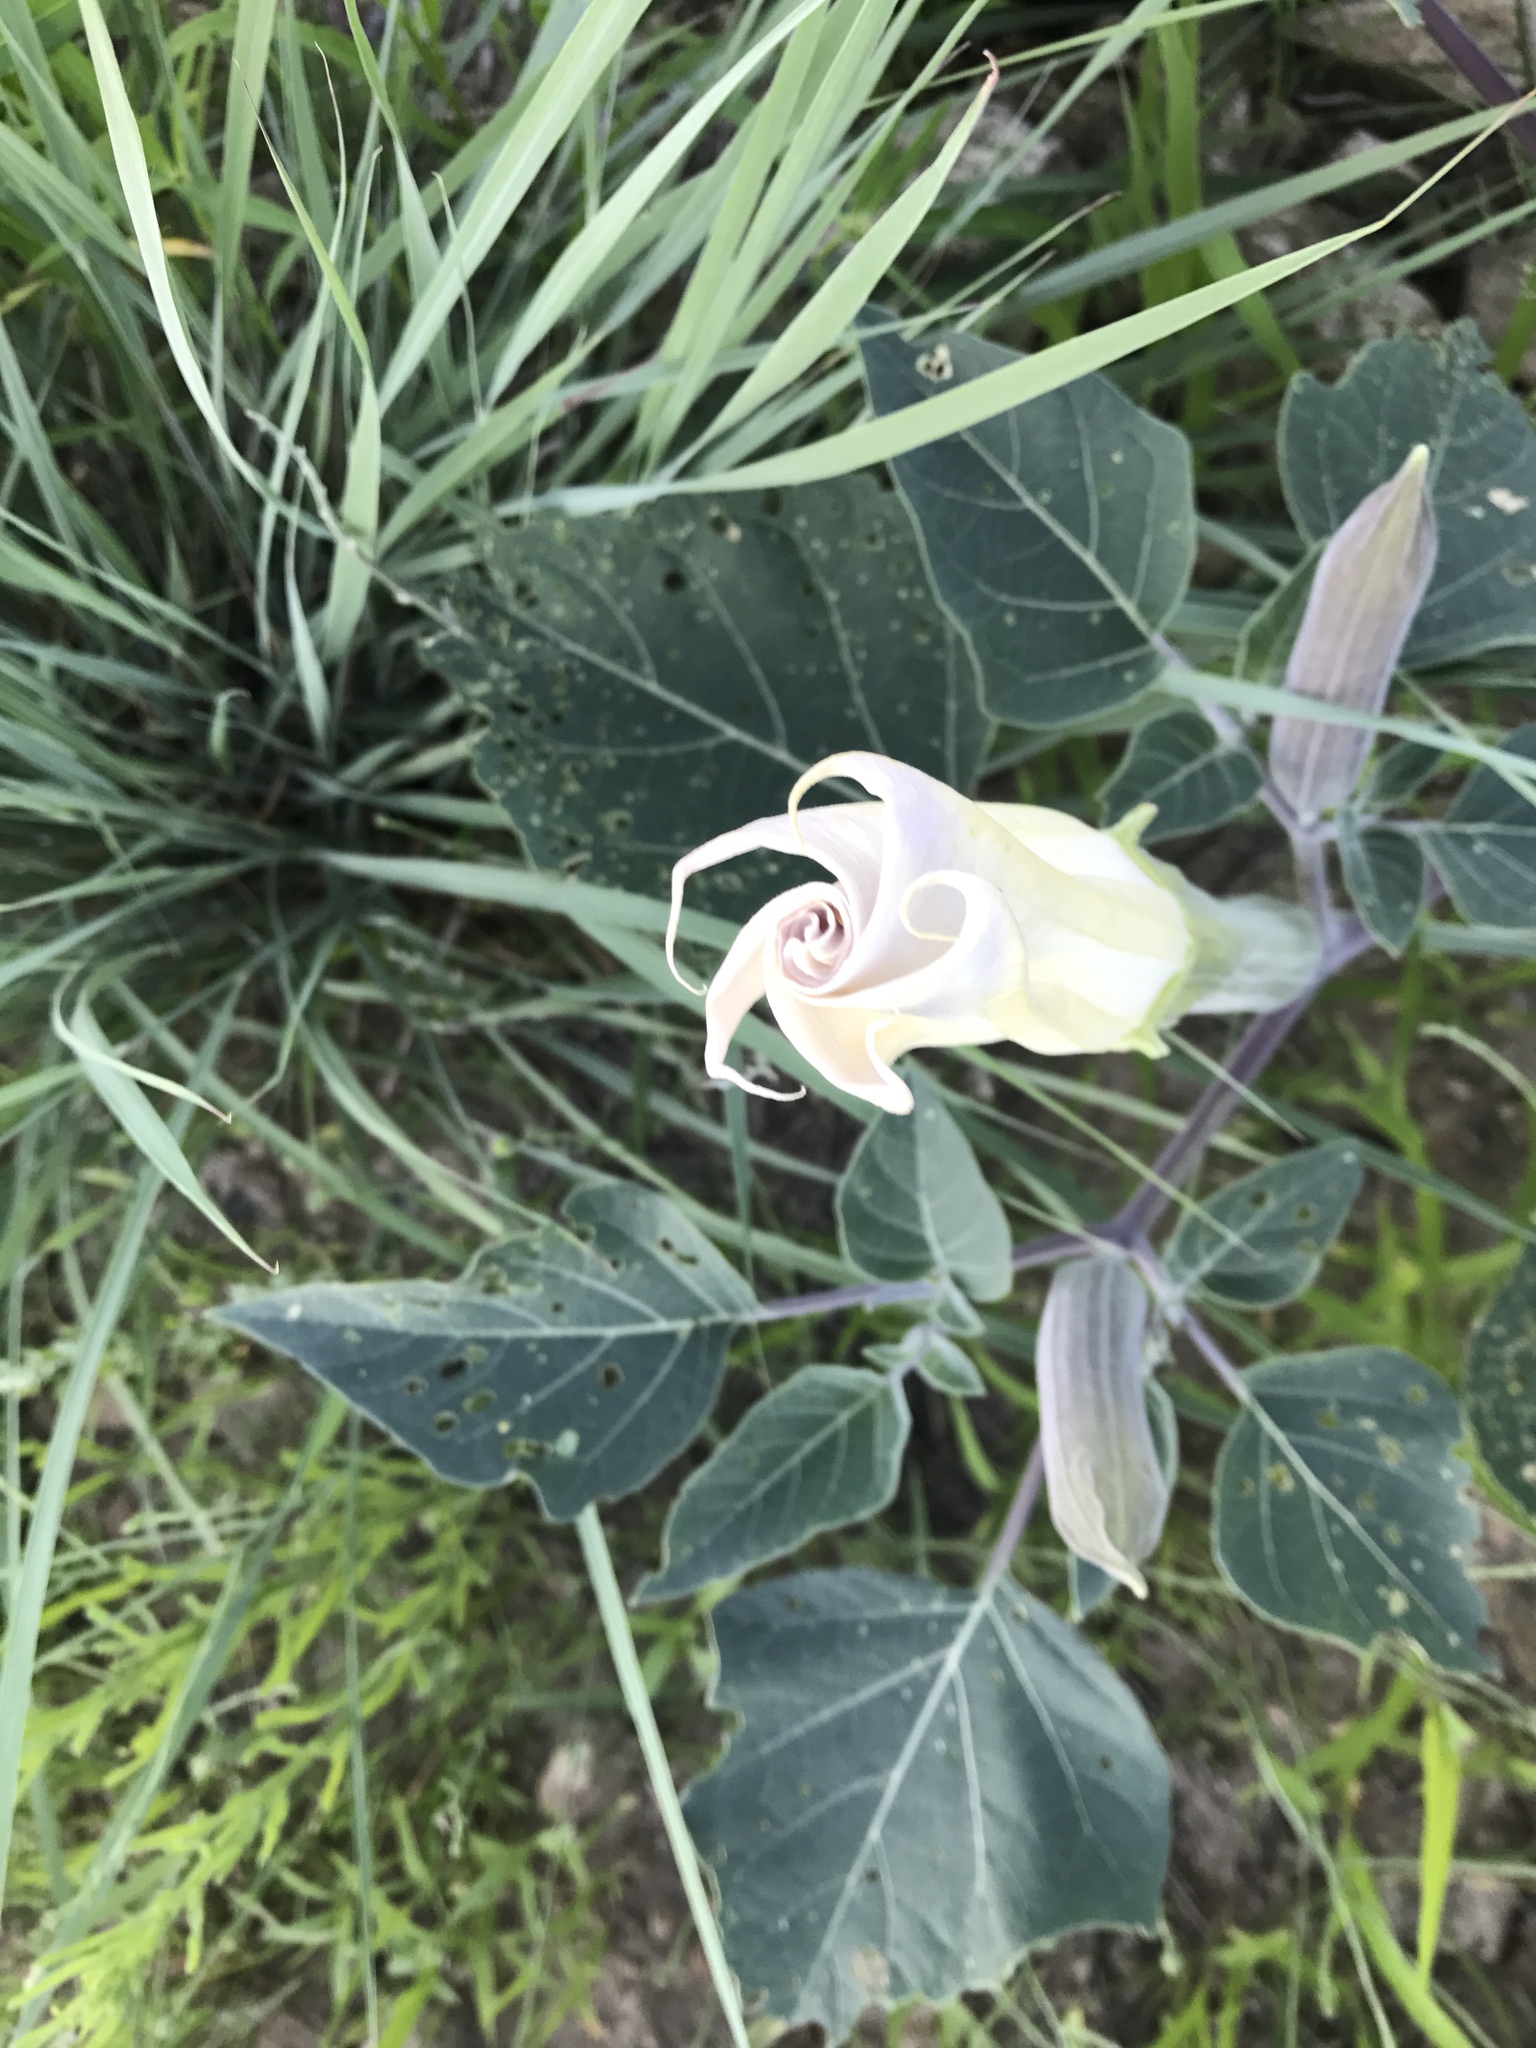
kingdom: Plantae
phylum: Tracheophyta
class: Magnoliopsida
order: Solanales
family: Solanaceae
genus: Datura
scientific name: Datura wrightii
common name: Sacred thorn-apple
